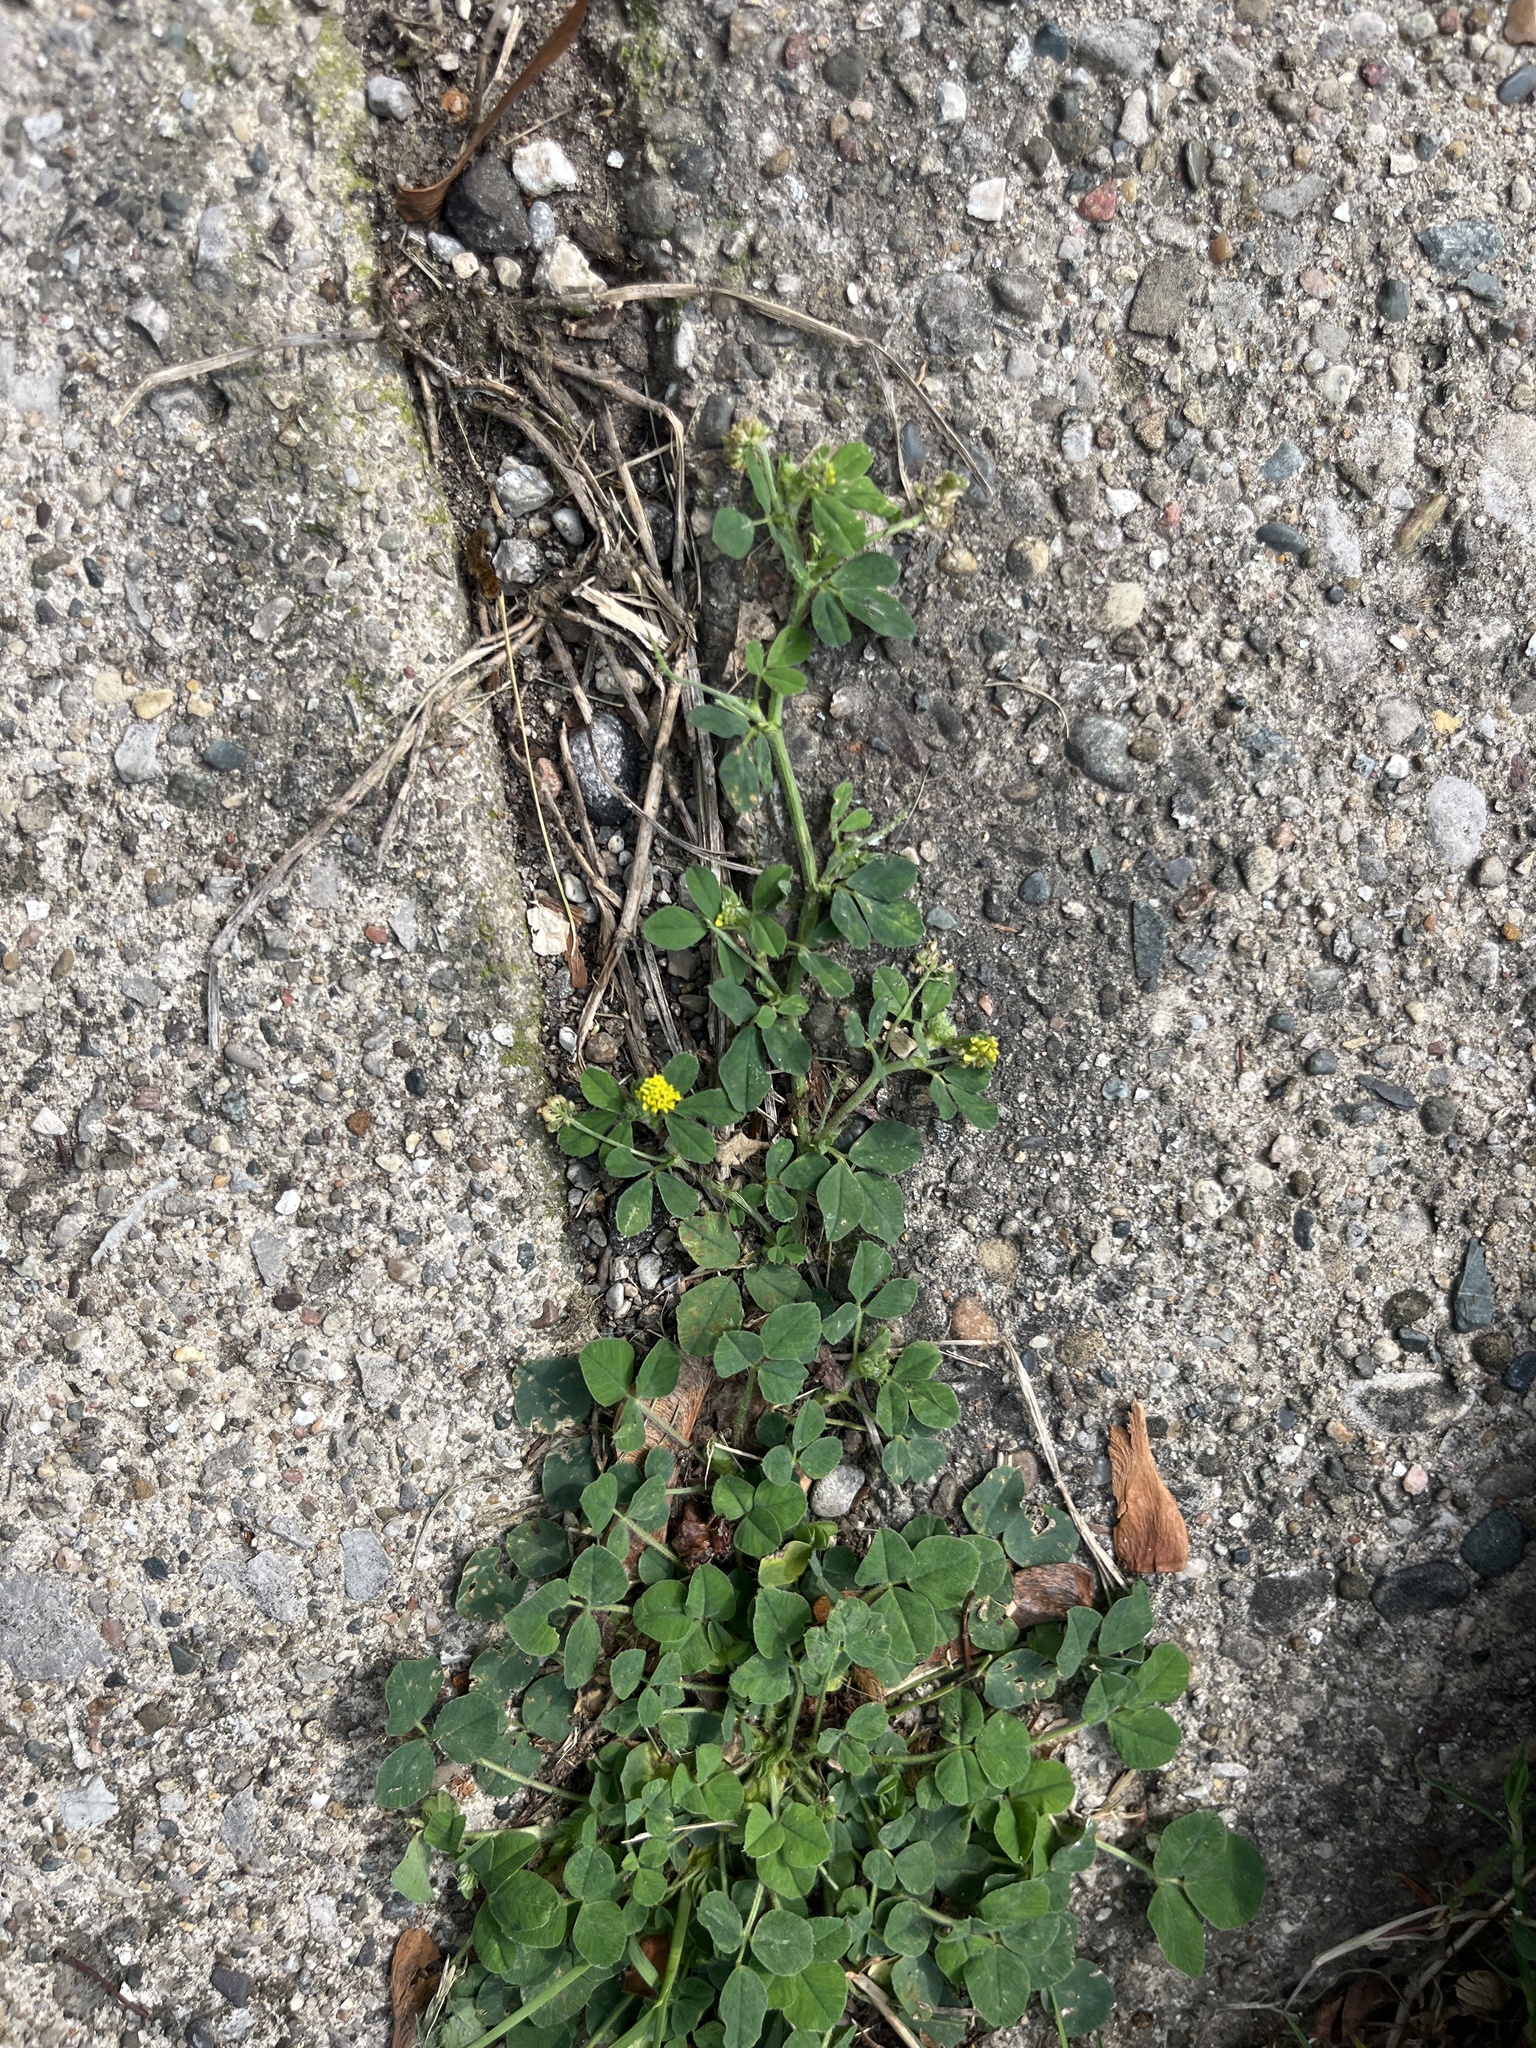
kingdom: Plantae
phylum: Tracheophyta
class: Magnoliopsida
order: Fabales
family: Fabaceae
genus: Medicago
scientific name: Medicago lupulina
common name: Black medick
